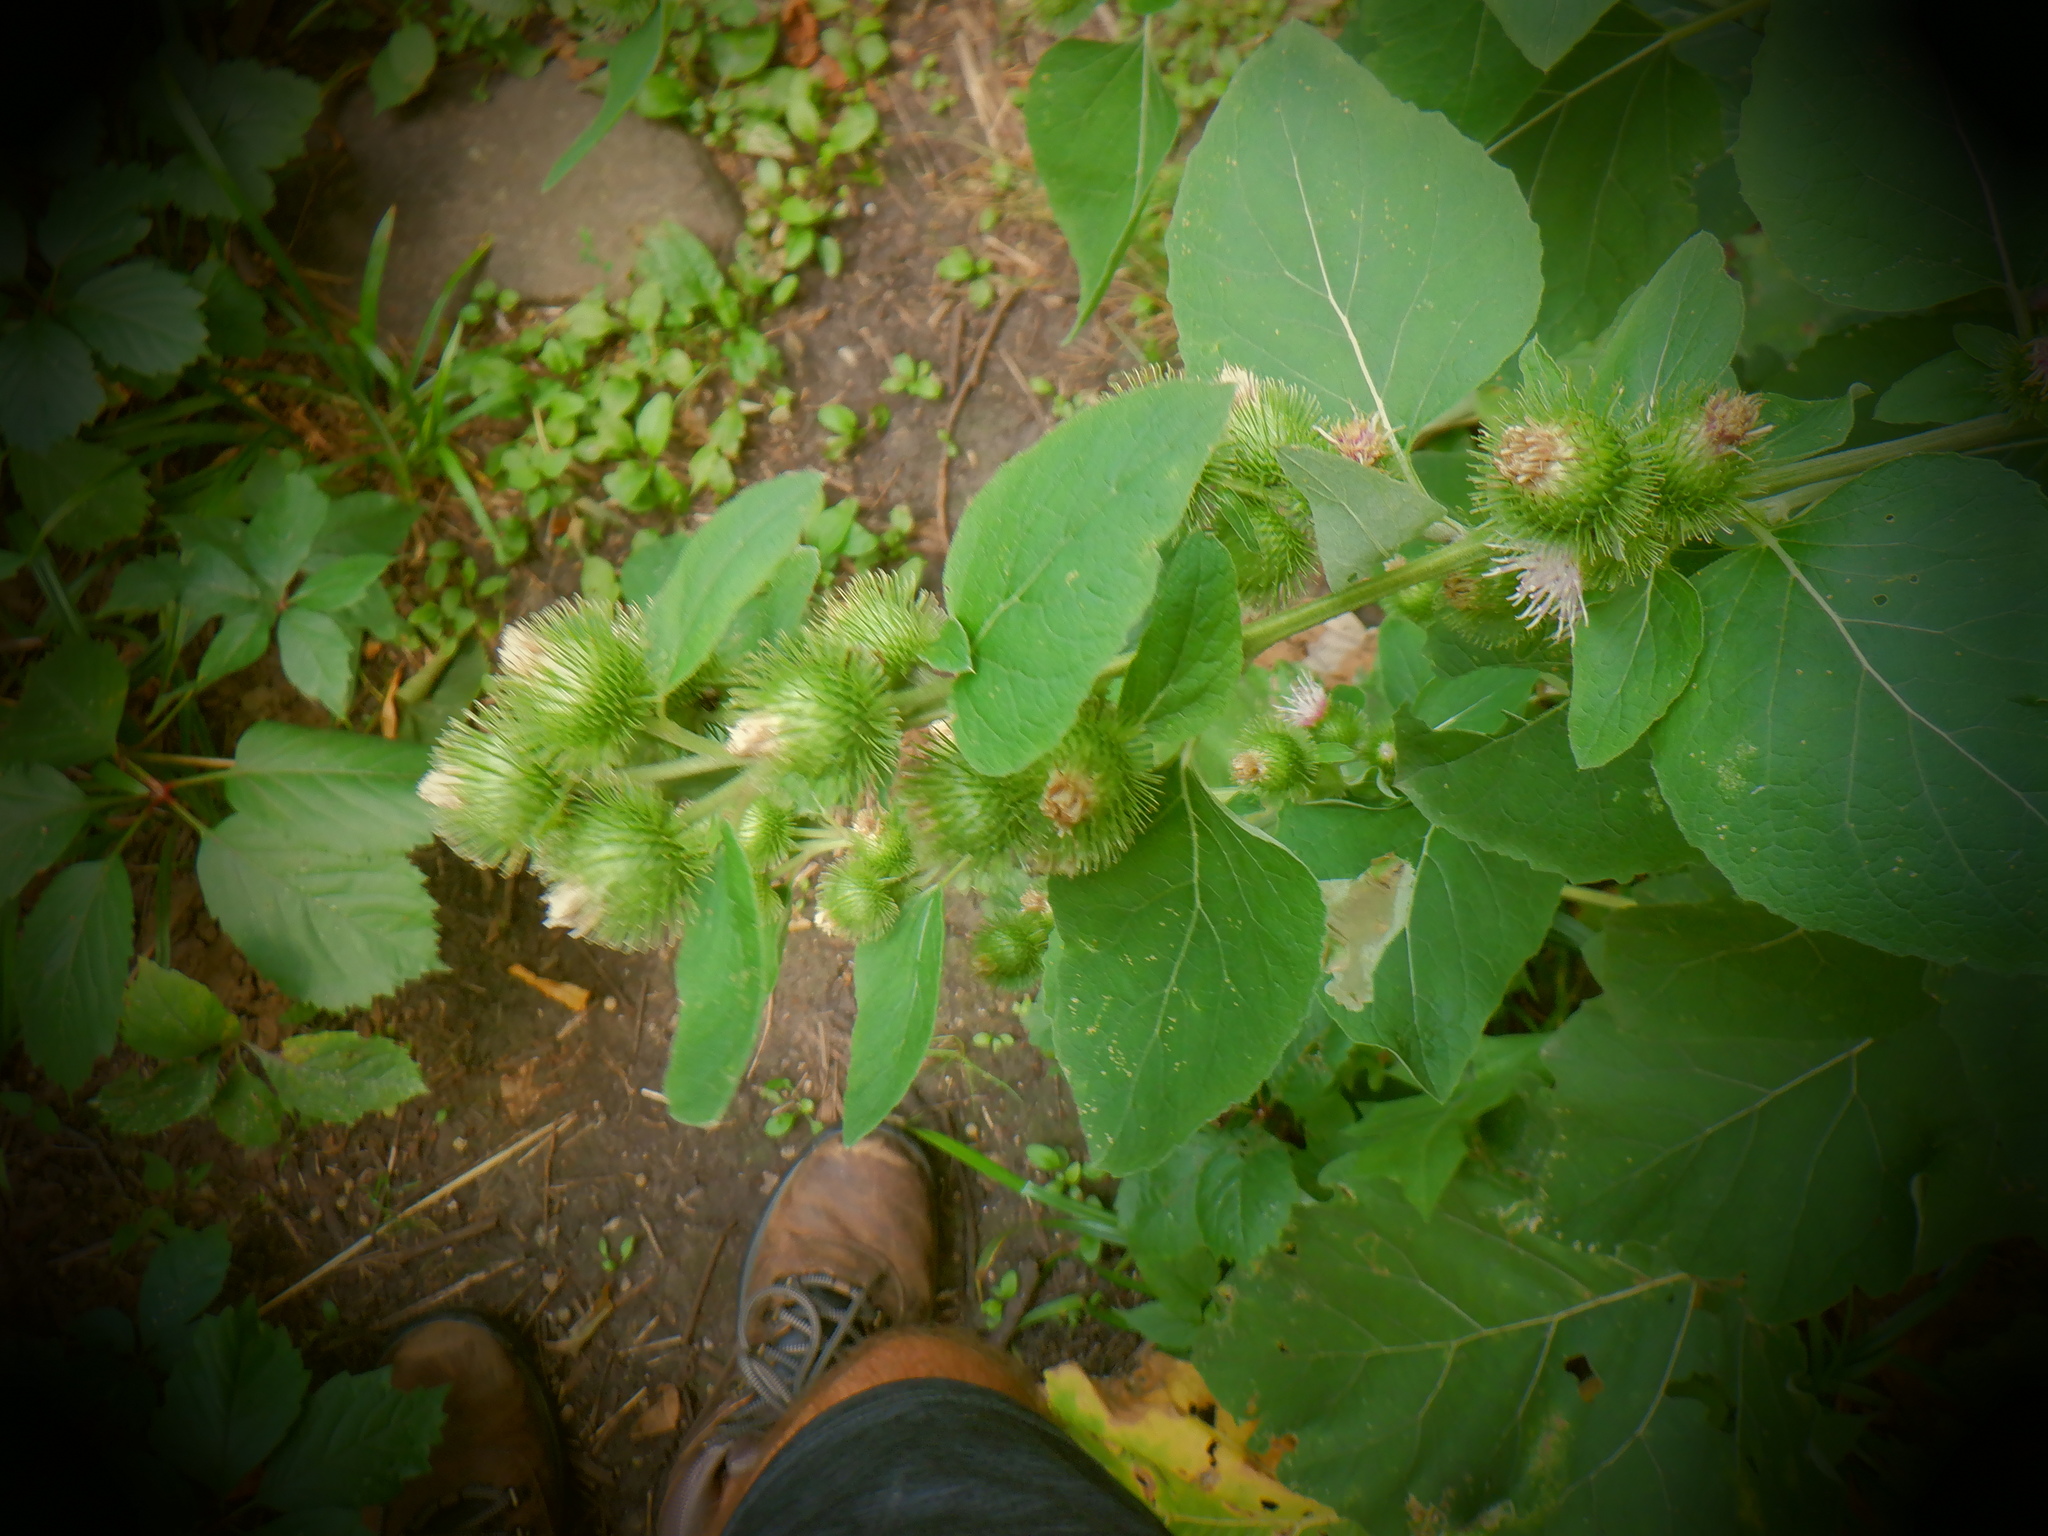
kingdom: Plantae
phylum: Tracheophyta
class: Magnoliopsida
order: Asterales
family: Asteraceae
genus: Arctium
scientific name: Arctium minus
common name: Lesser burdock
